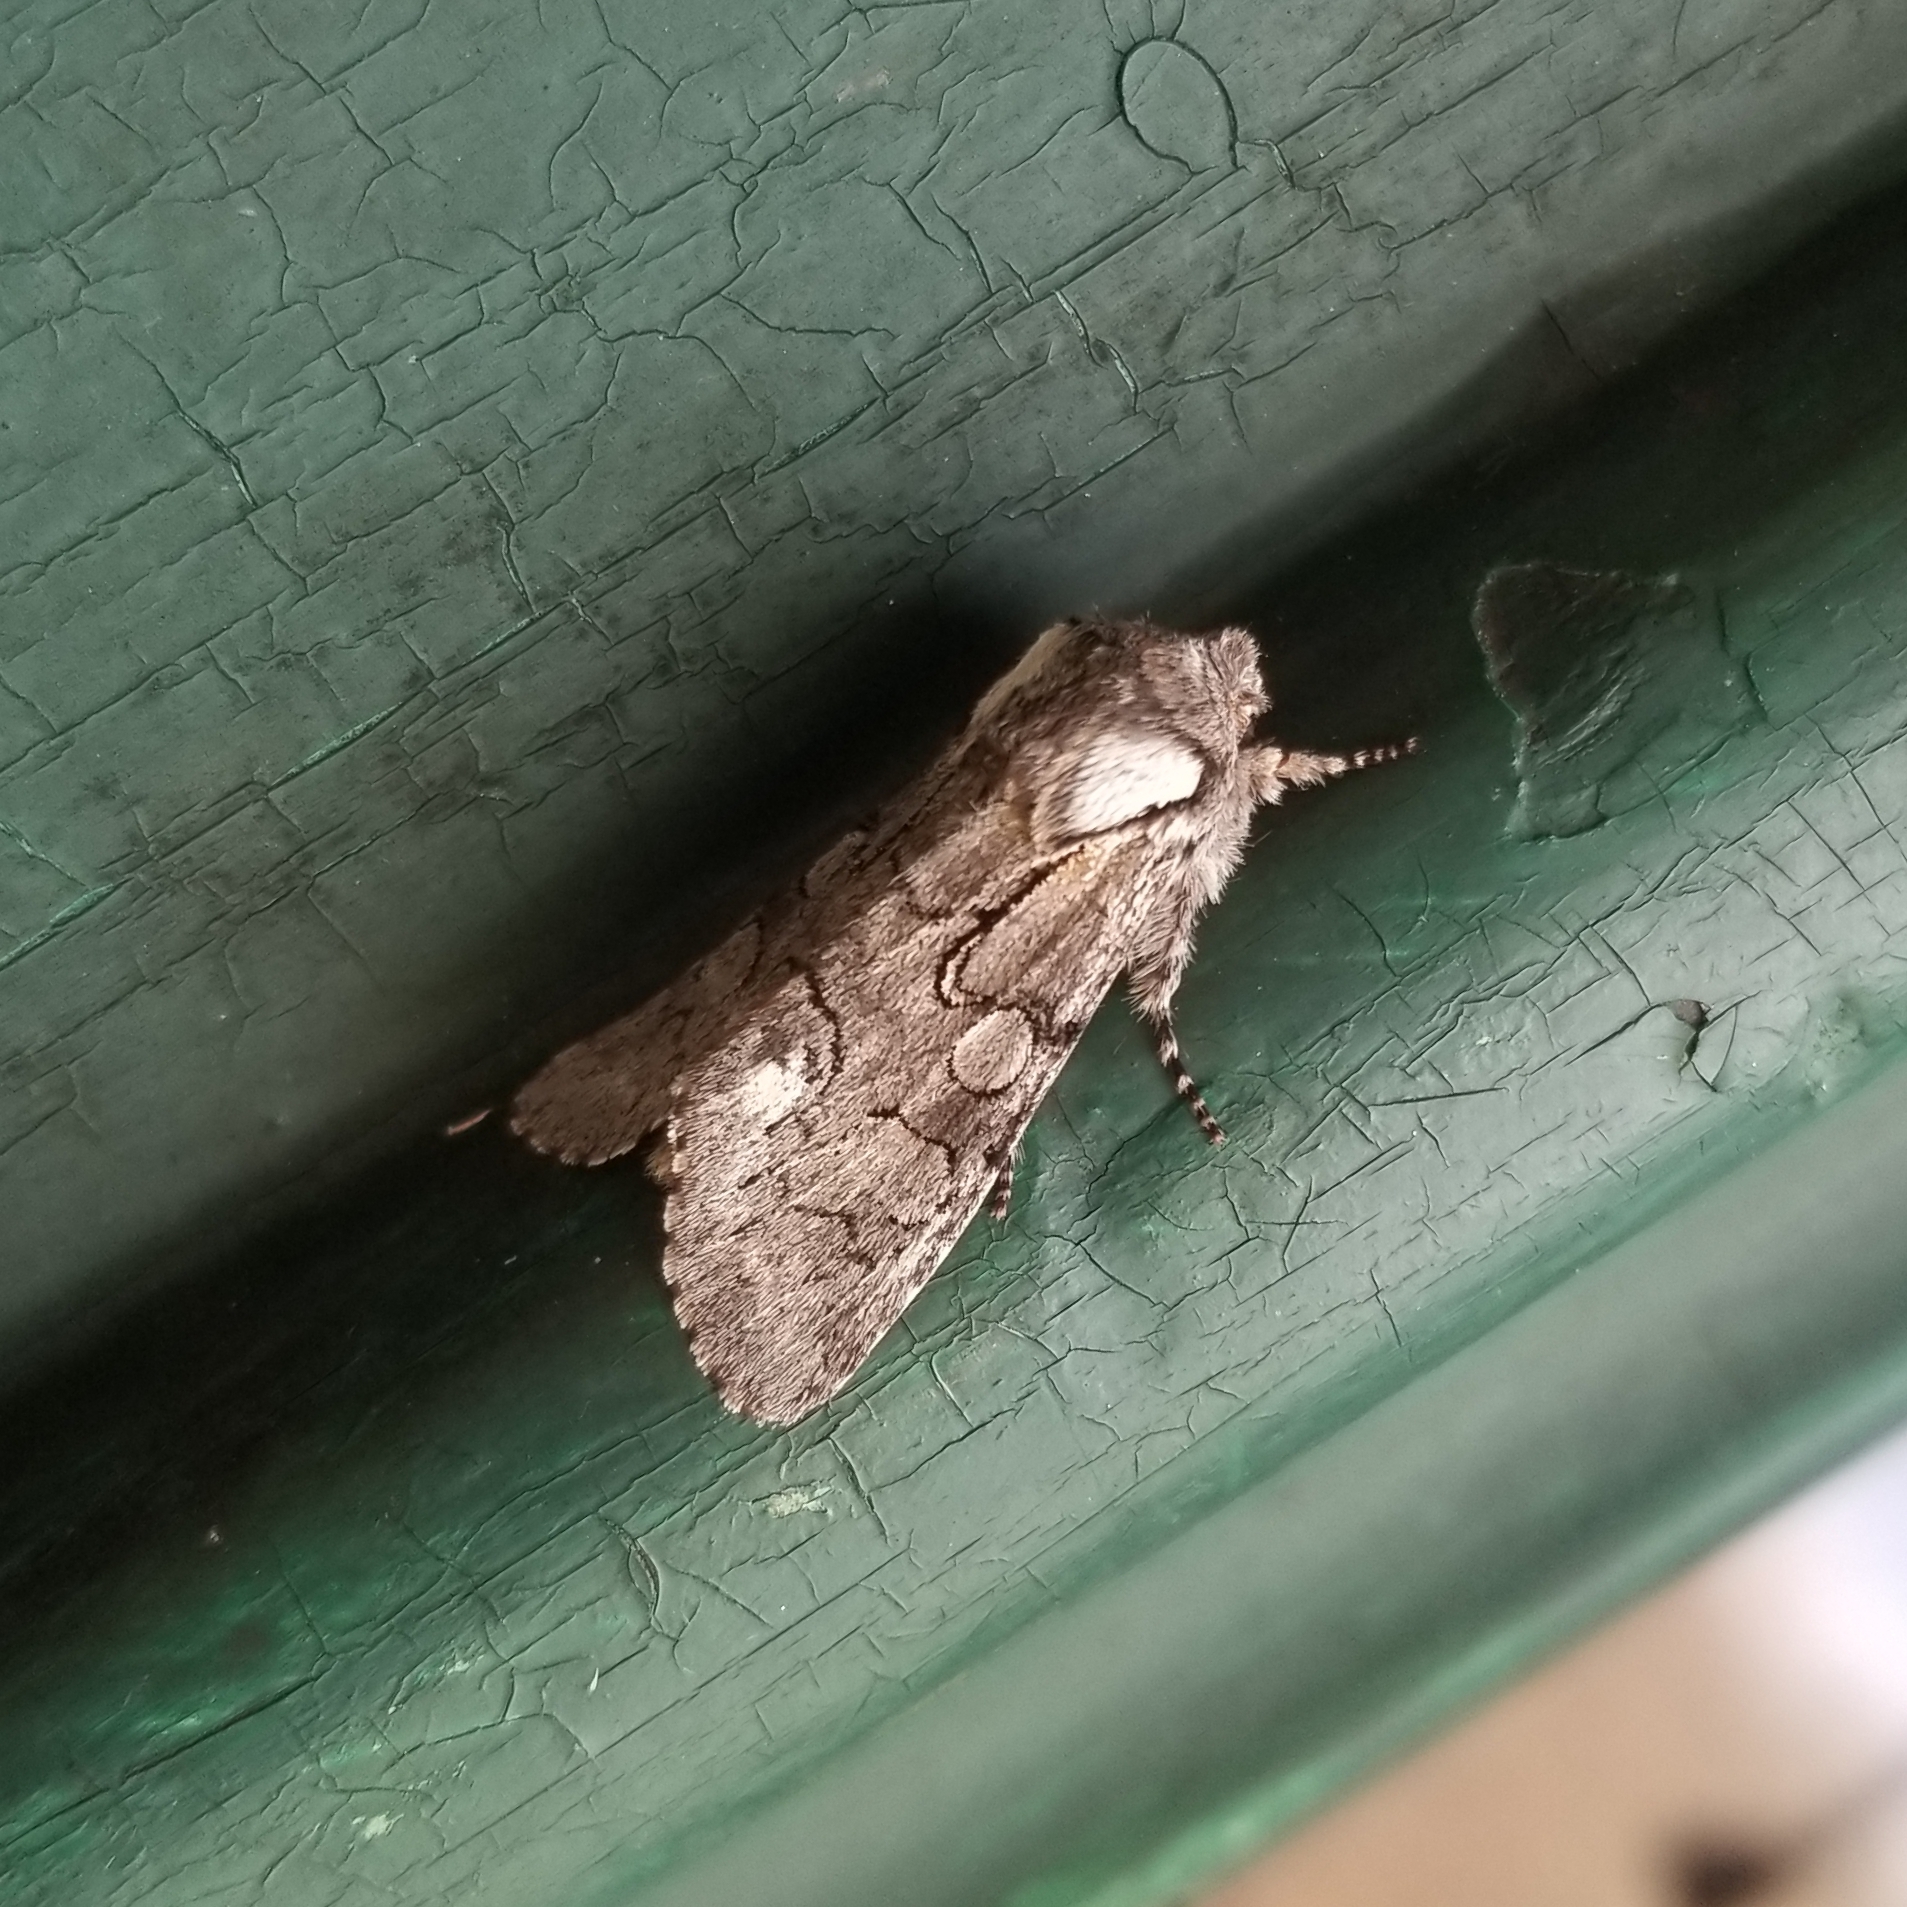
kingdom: Animalia
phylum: Arthropoda
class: Insecta
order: Lepidoptera
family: Noctuidae
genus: Psaphida
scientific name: Psaphida electilis
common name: Chosen sallow
